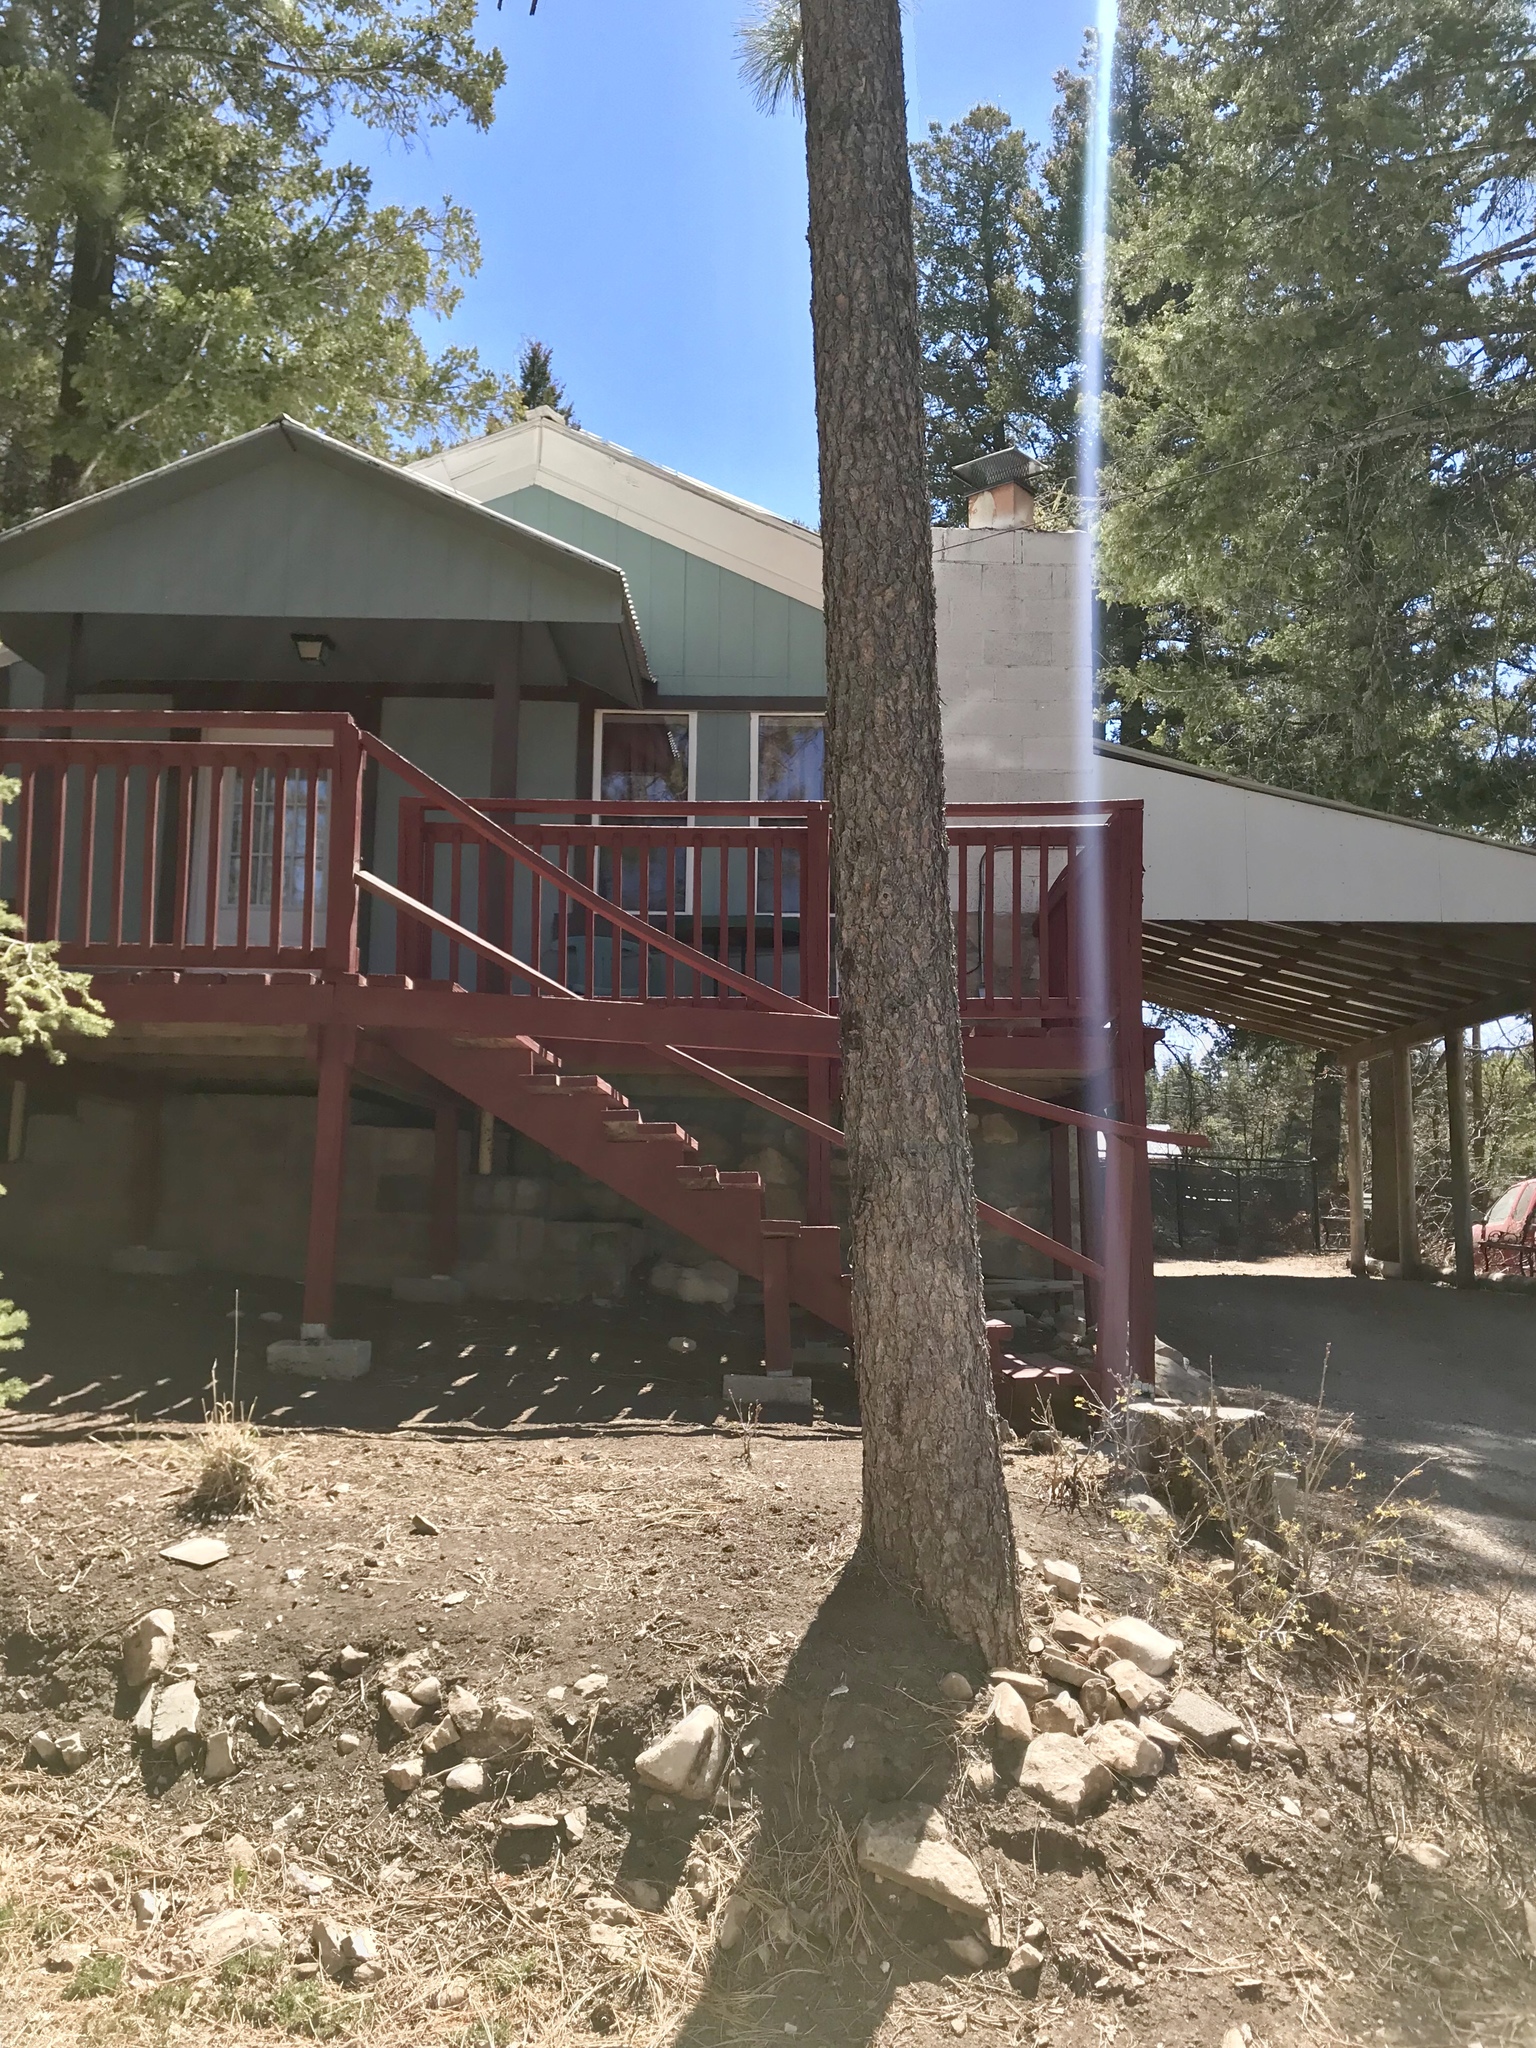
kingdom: Plantae
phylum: Tracheophyta
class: Pinopsida
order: Pinales
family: Pinaceae
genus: Pinus
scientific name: Pinus ponderosa
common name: Western yellow-pine
